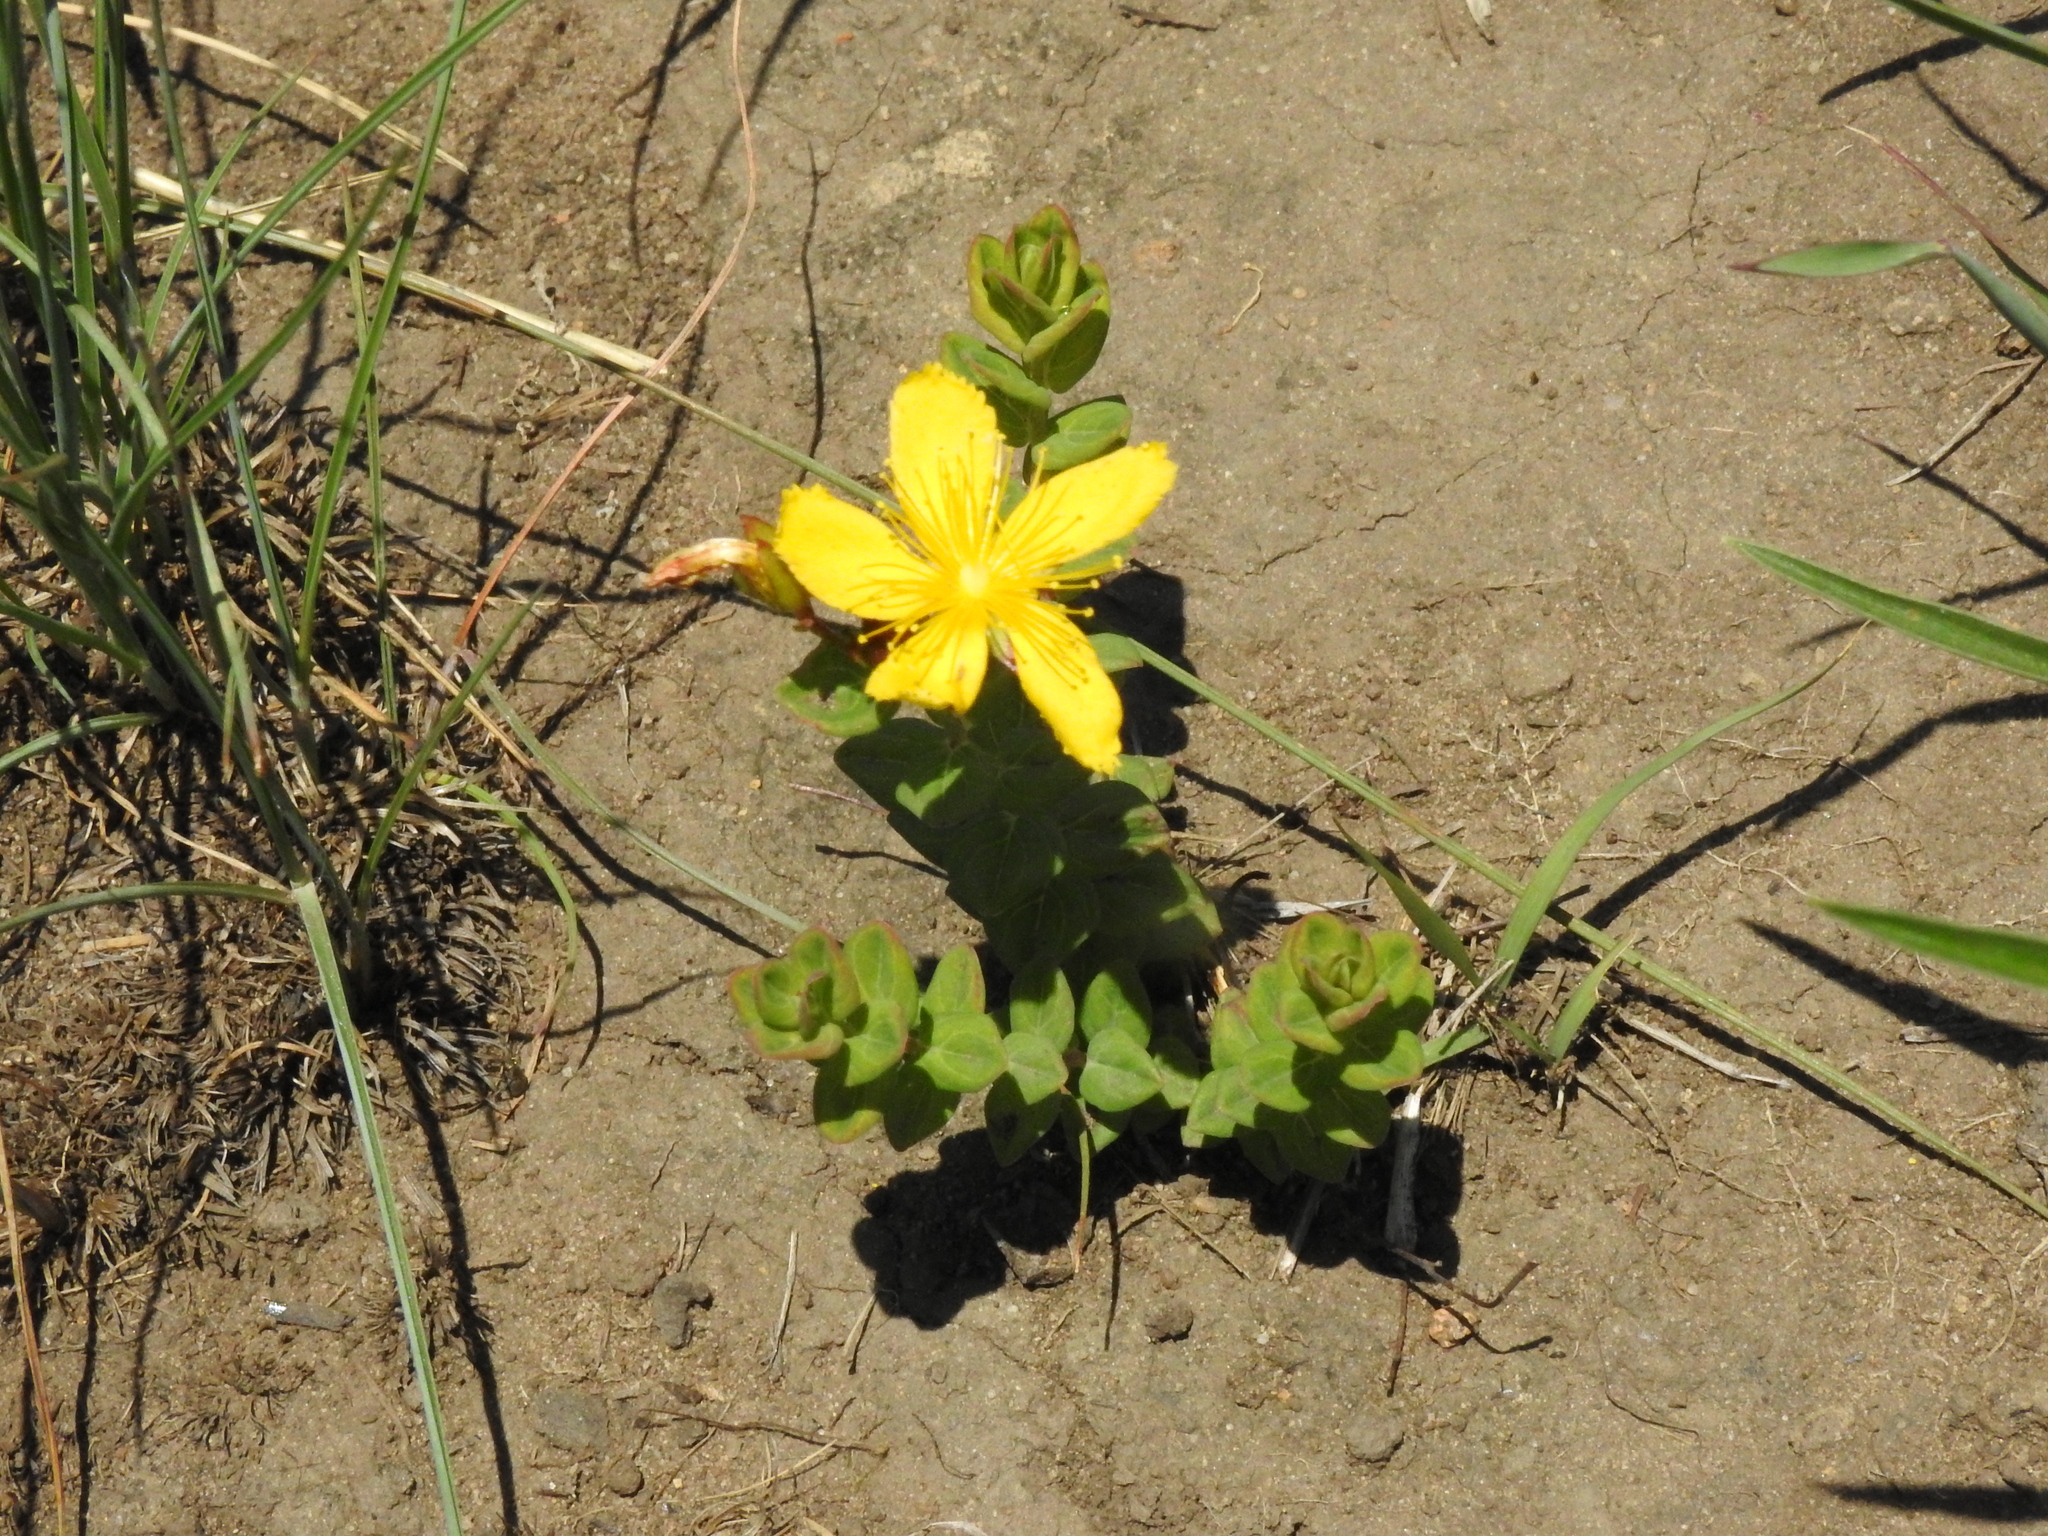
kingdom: Plantae
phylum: Tracheophyta
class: Magnoliopsida
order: Malpighiales
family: Hypericaceae
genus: Hypericum
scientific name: Hypericum aethiopicum
